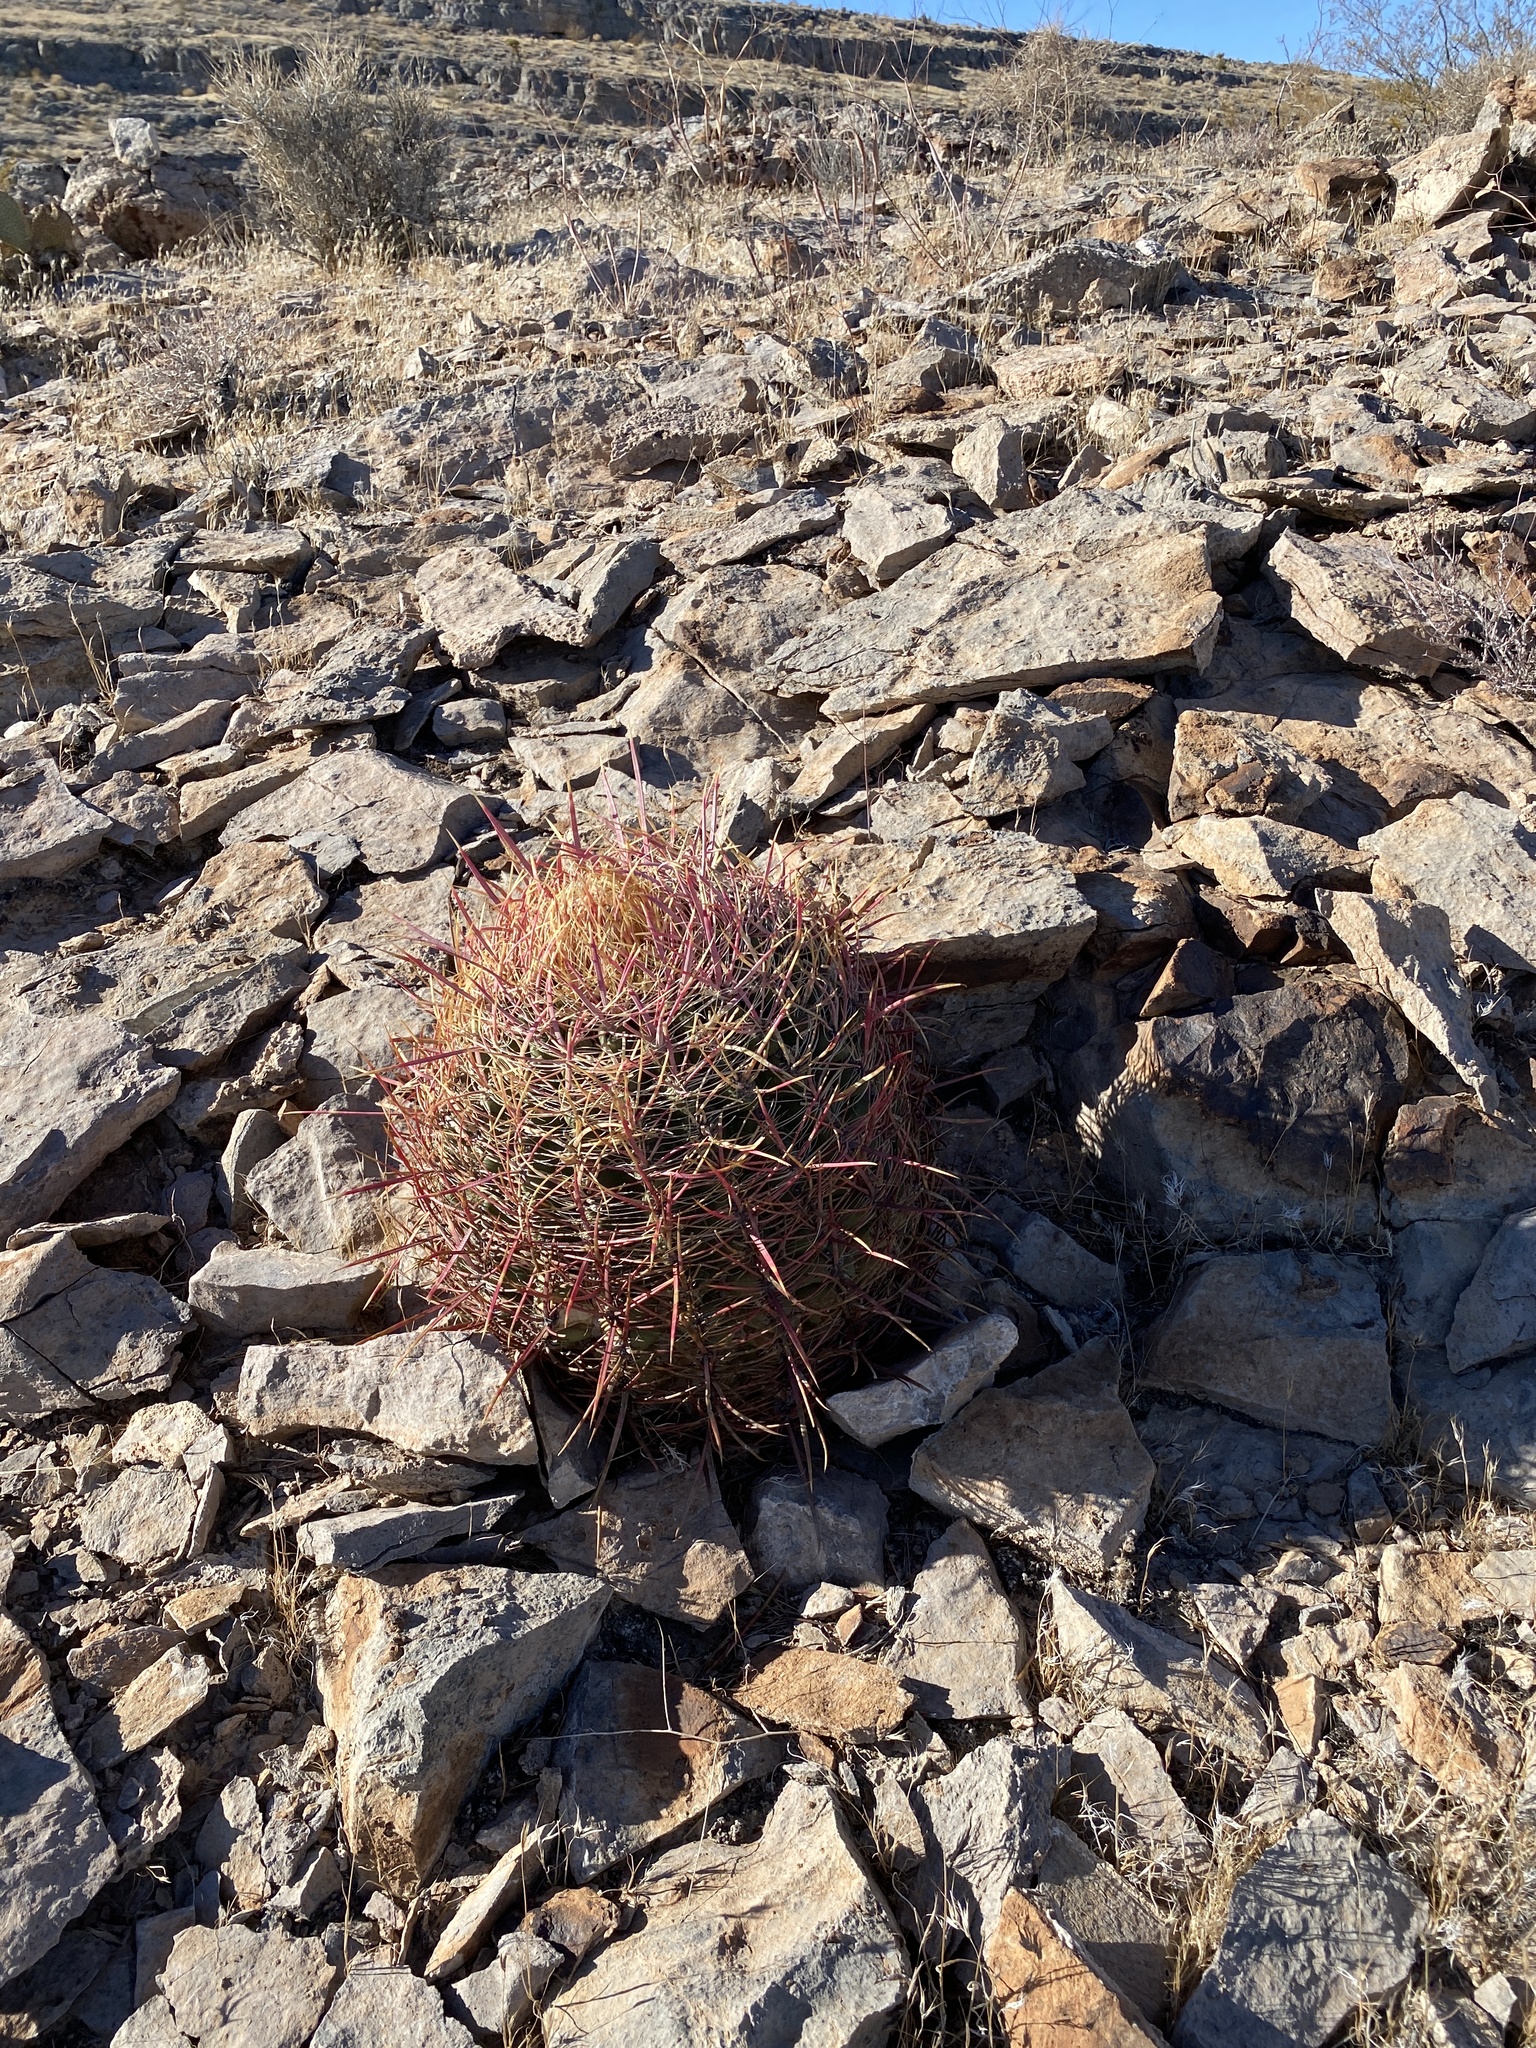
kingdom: Plantae
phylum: Tracheophyta
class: Magnoliopsida
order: Caryophyllales
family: Cactaceae
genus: Ferocactus
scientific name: Ferocactus cylindraceus
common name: California barrel cactus
